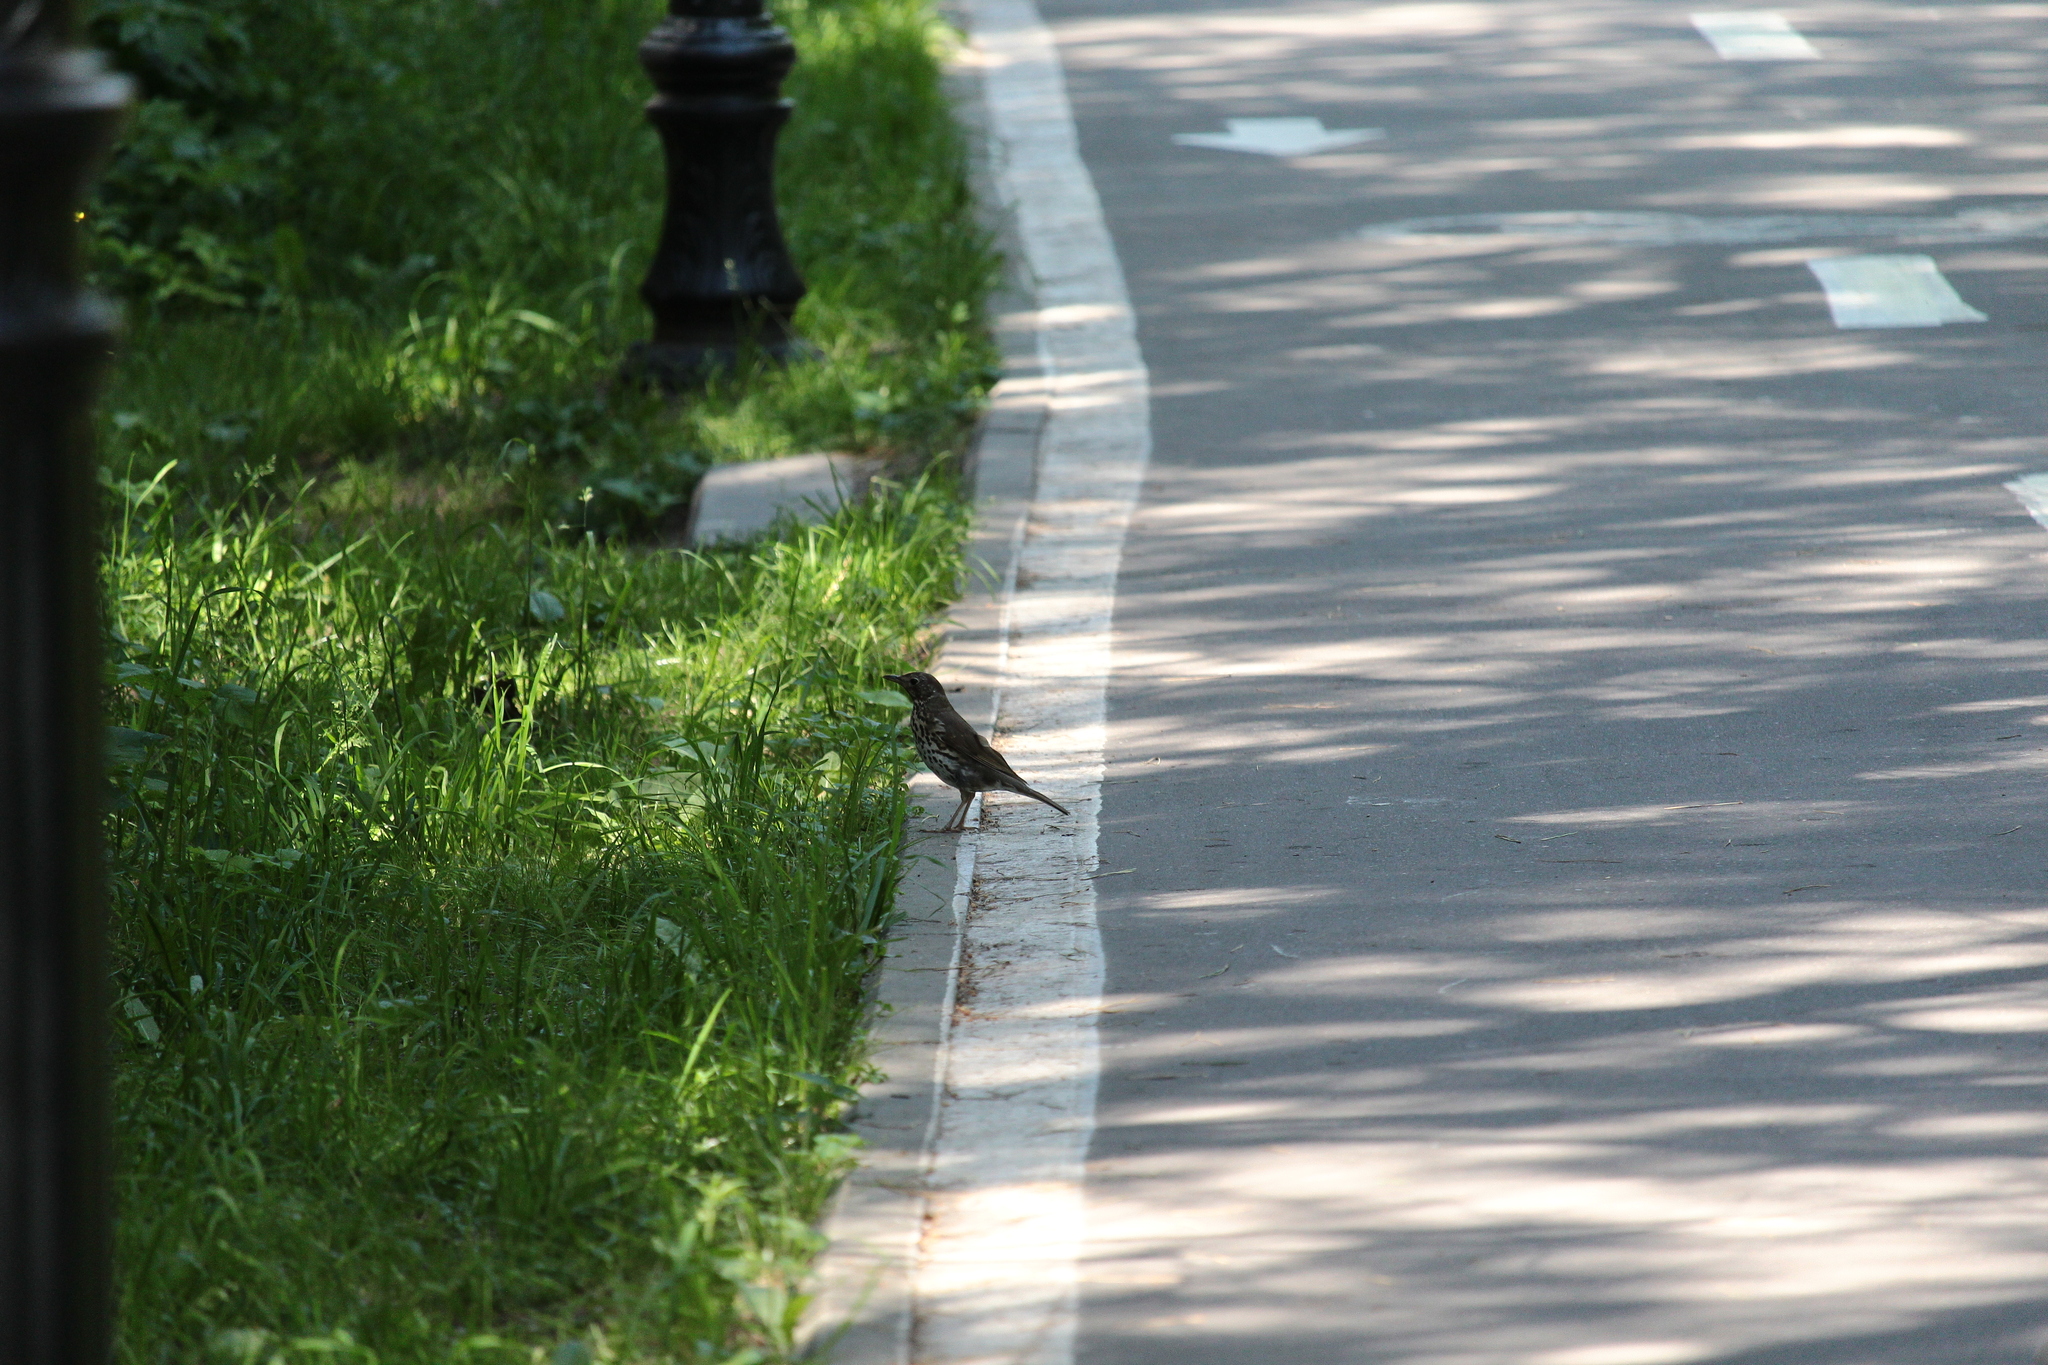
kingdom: Animalia
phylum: Chordata
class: Aves
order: Passeriformes
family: Turdidae
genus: Turdus
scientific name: Turdus philomelos
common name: Song thrush
